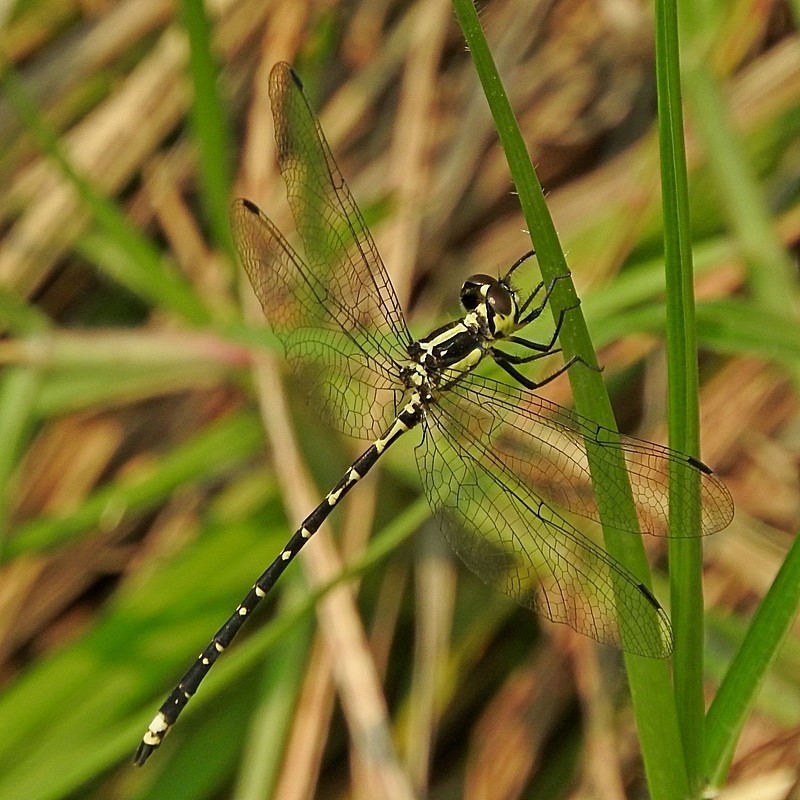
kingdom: Animalia
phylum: Arthropoda
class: Insecta
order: Odonata
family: Synthemistidae
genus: Choristhemis
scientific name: Choristhemis flavoterminata
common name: Yellow-tipped tigertail
